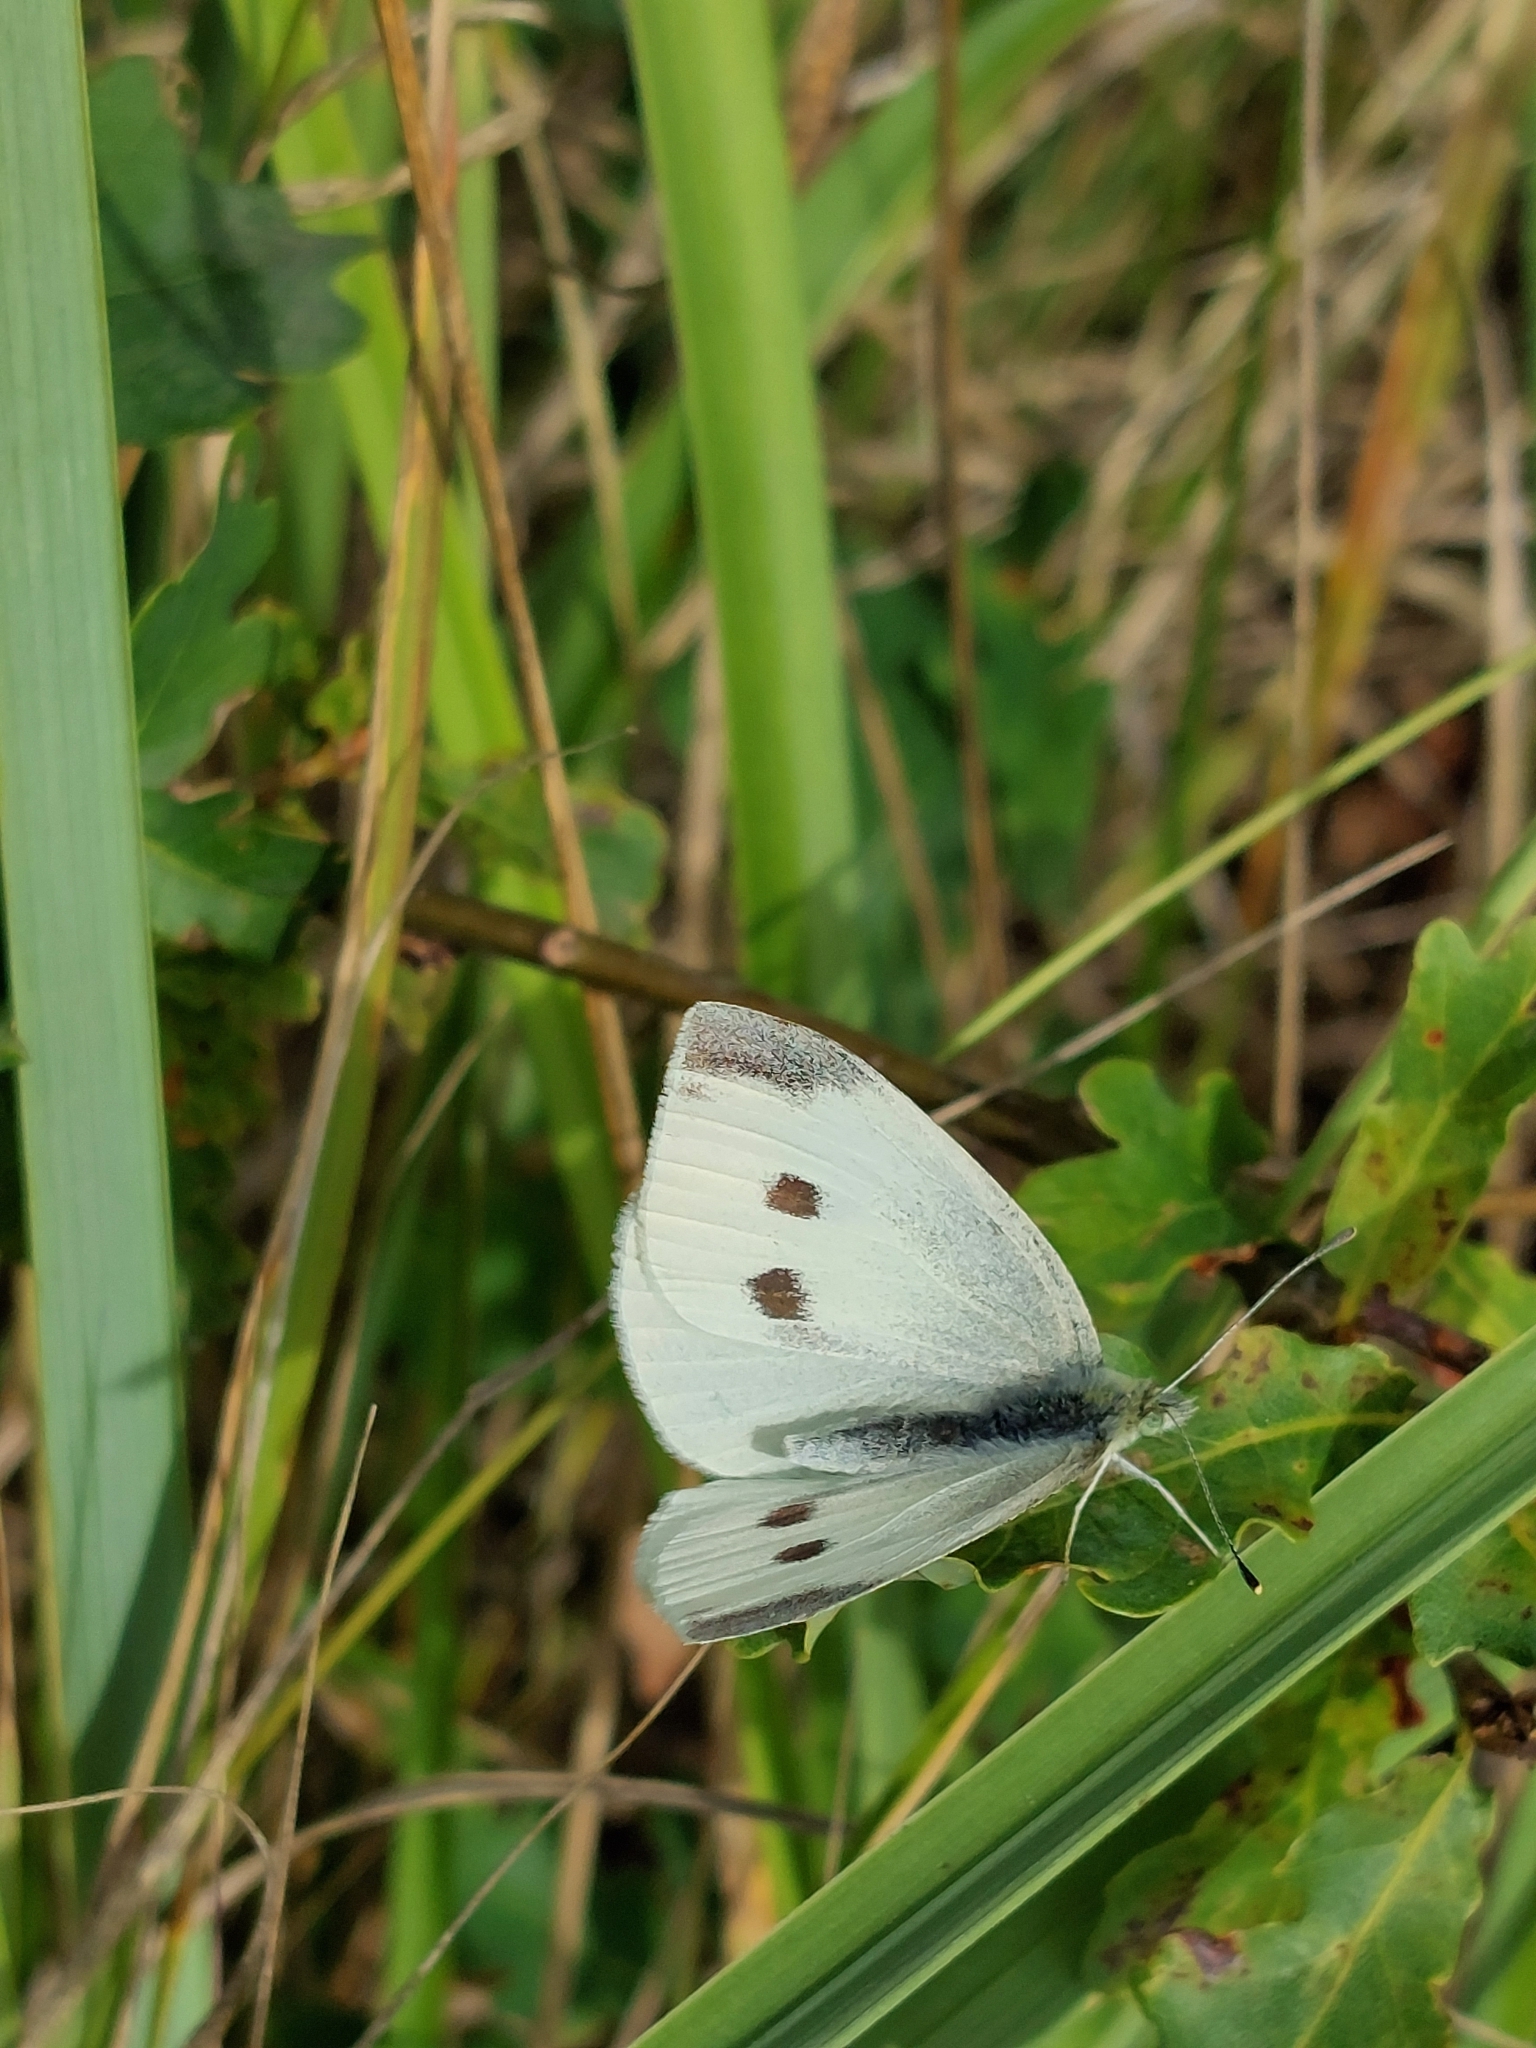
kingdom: Animalia
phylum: Arthropoda
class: Insecta
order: Lepidoptera
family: Pieridae
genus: Pieris
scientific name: Pieris rapae
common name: Small white
